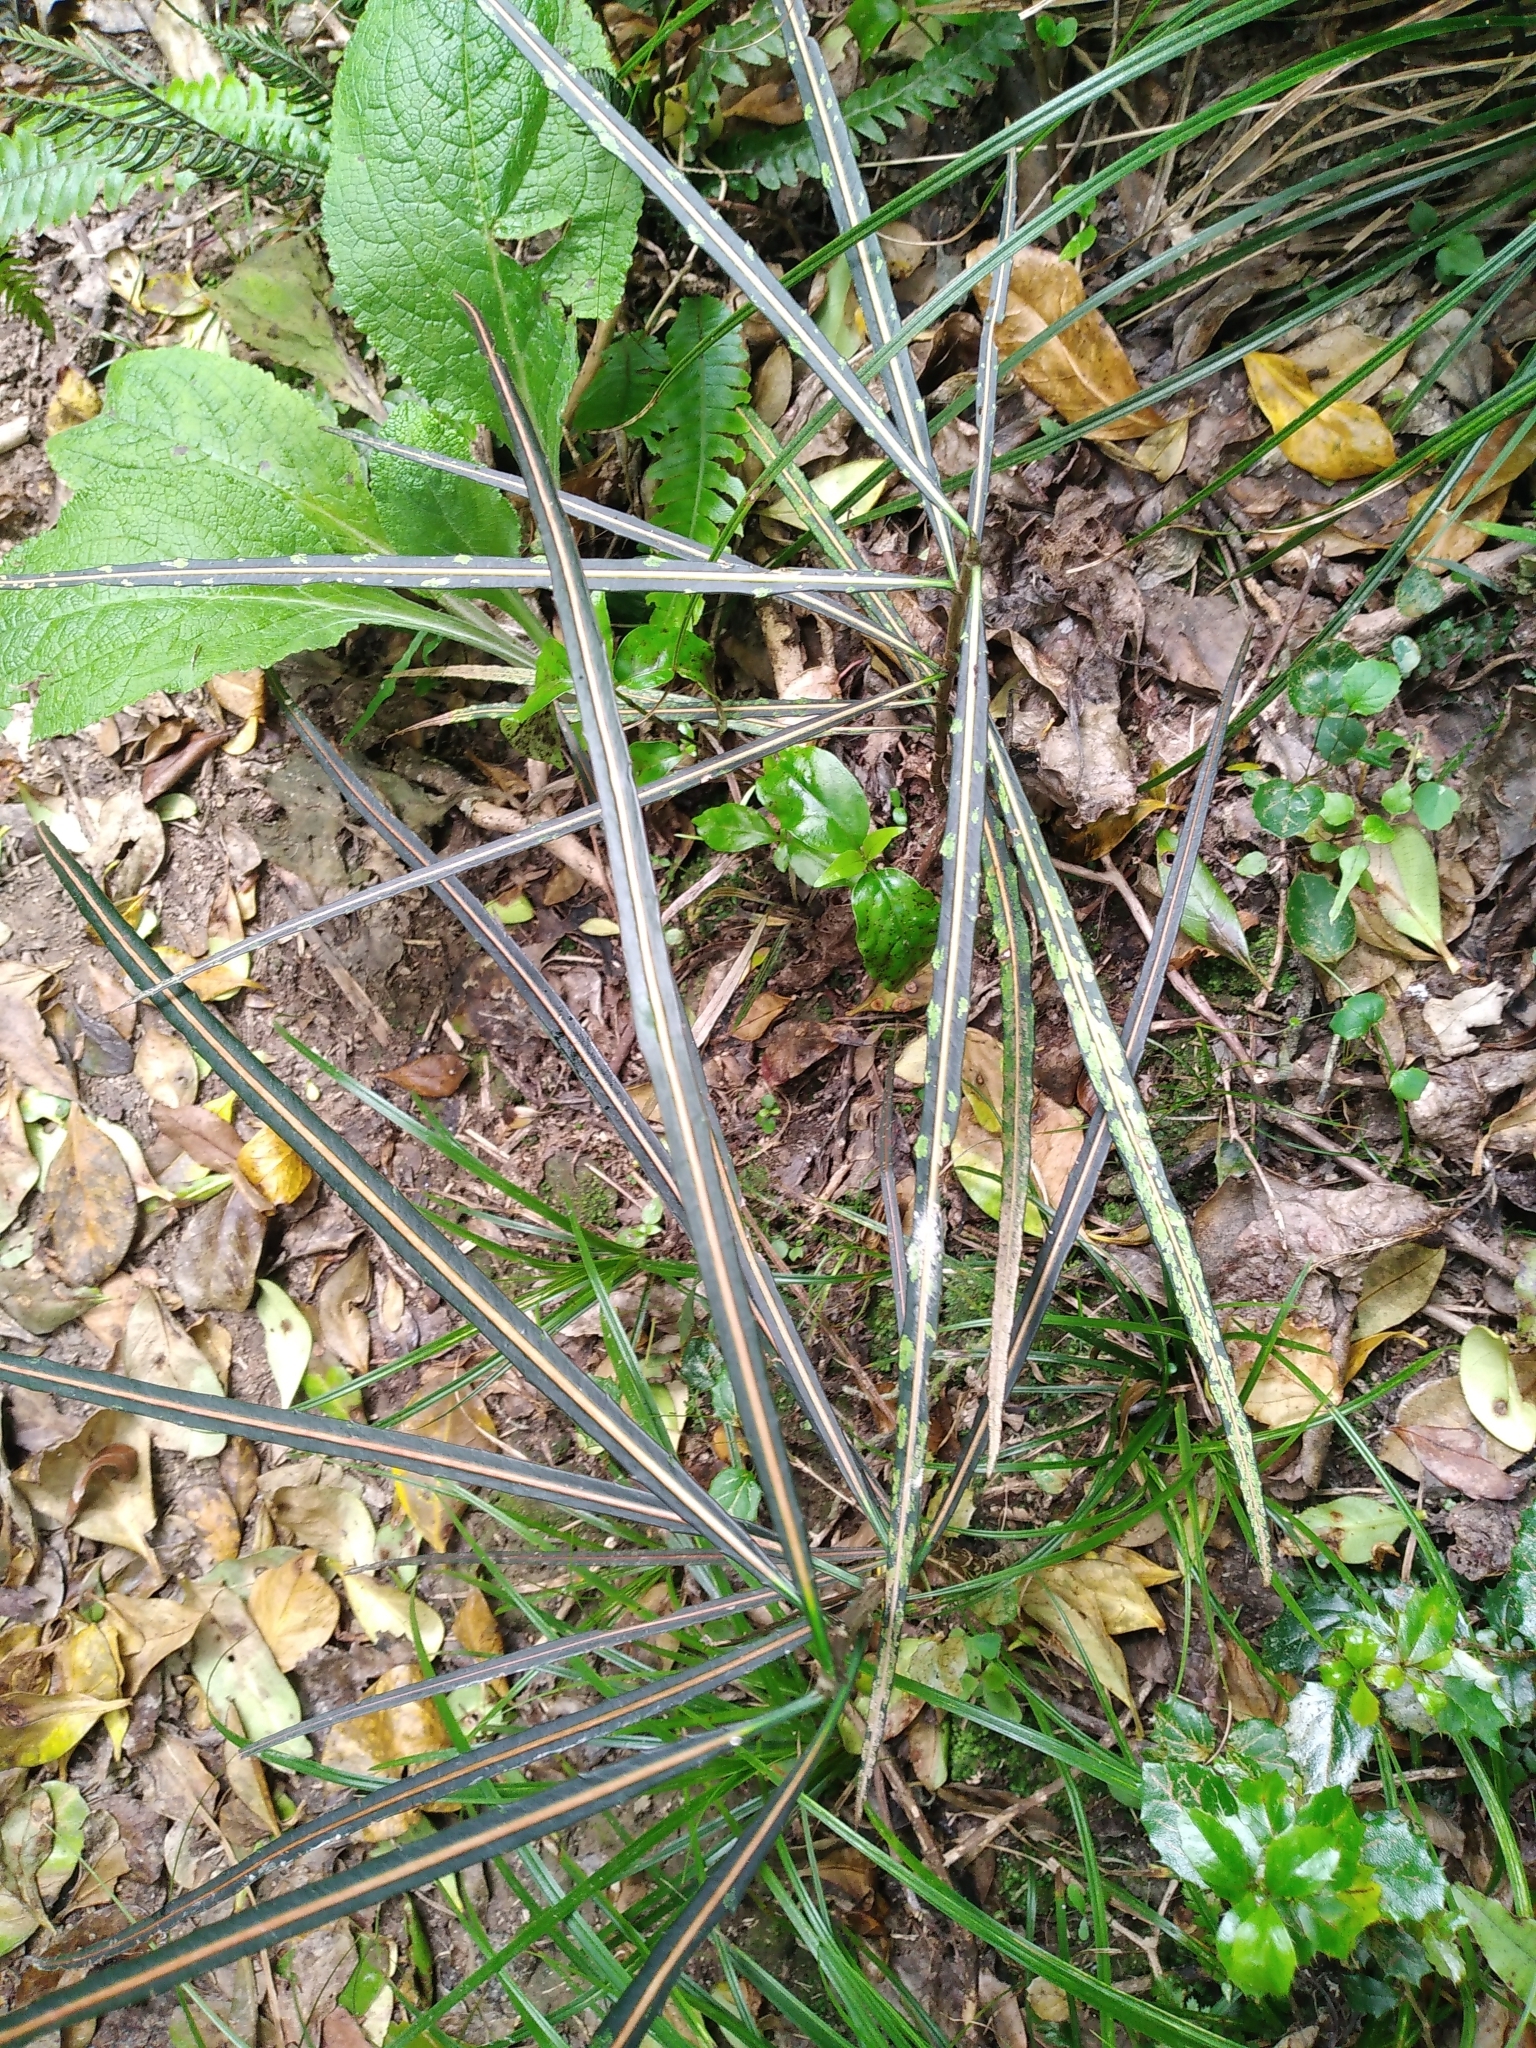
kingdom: Plantae
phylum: Tracheophyta
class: Magnoliopsida
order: Apiales
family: Araliaceae
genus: Pseudopanax
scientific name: Pseudopanax crassifolius
